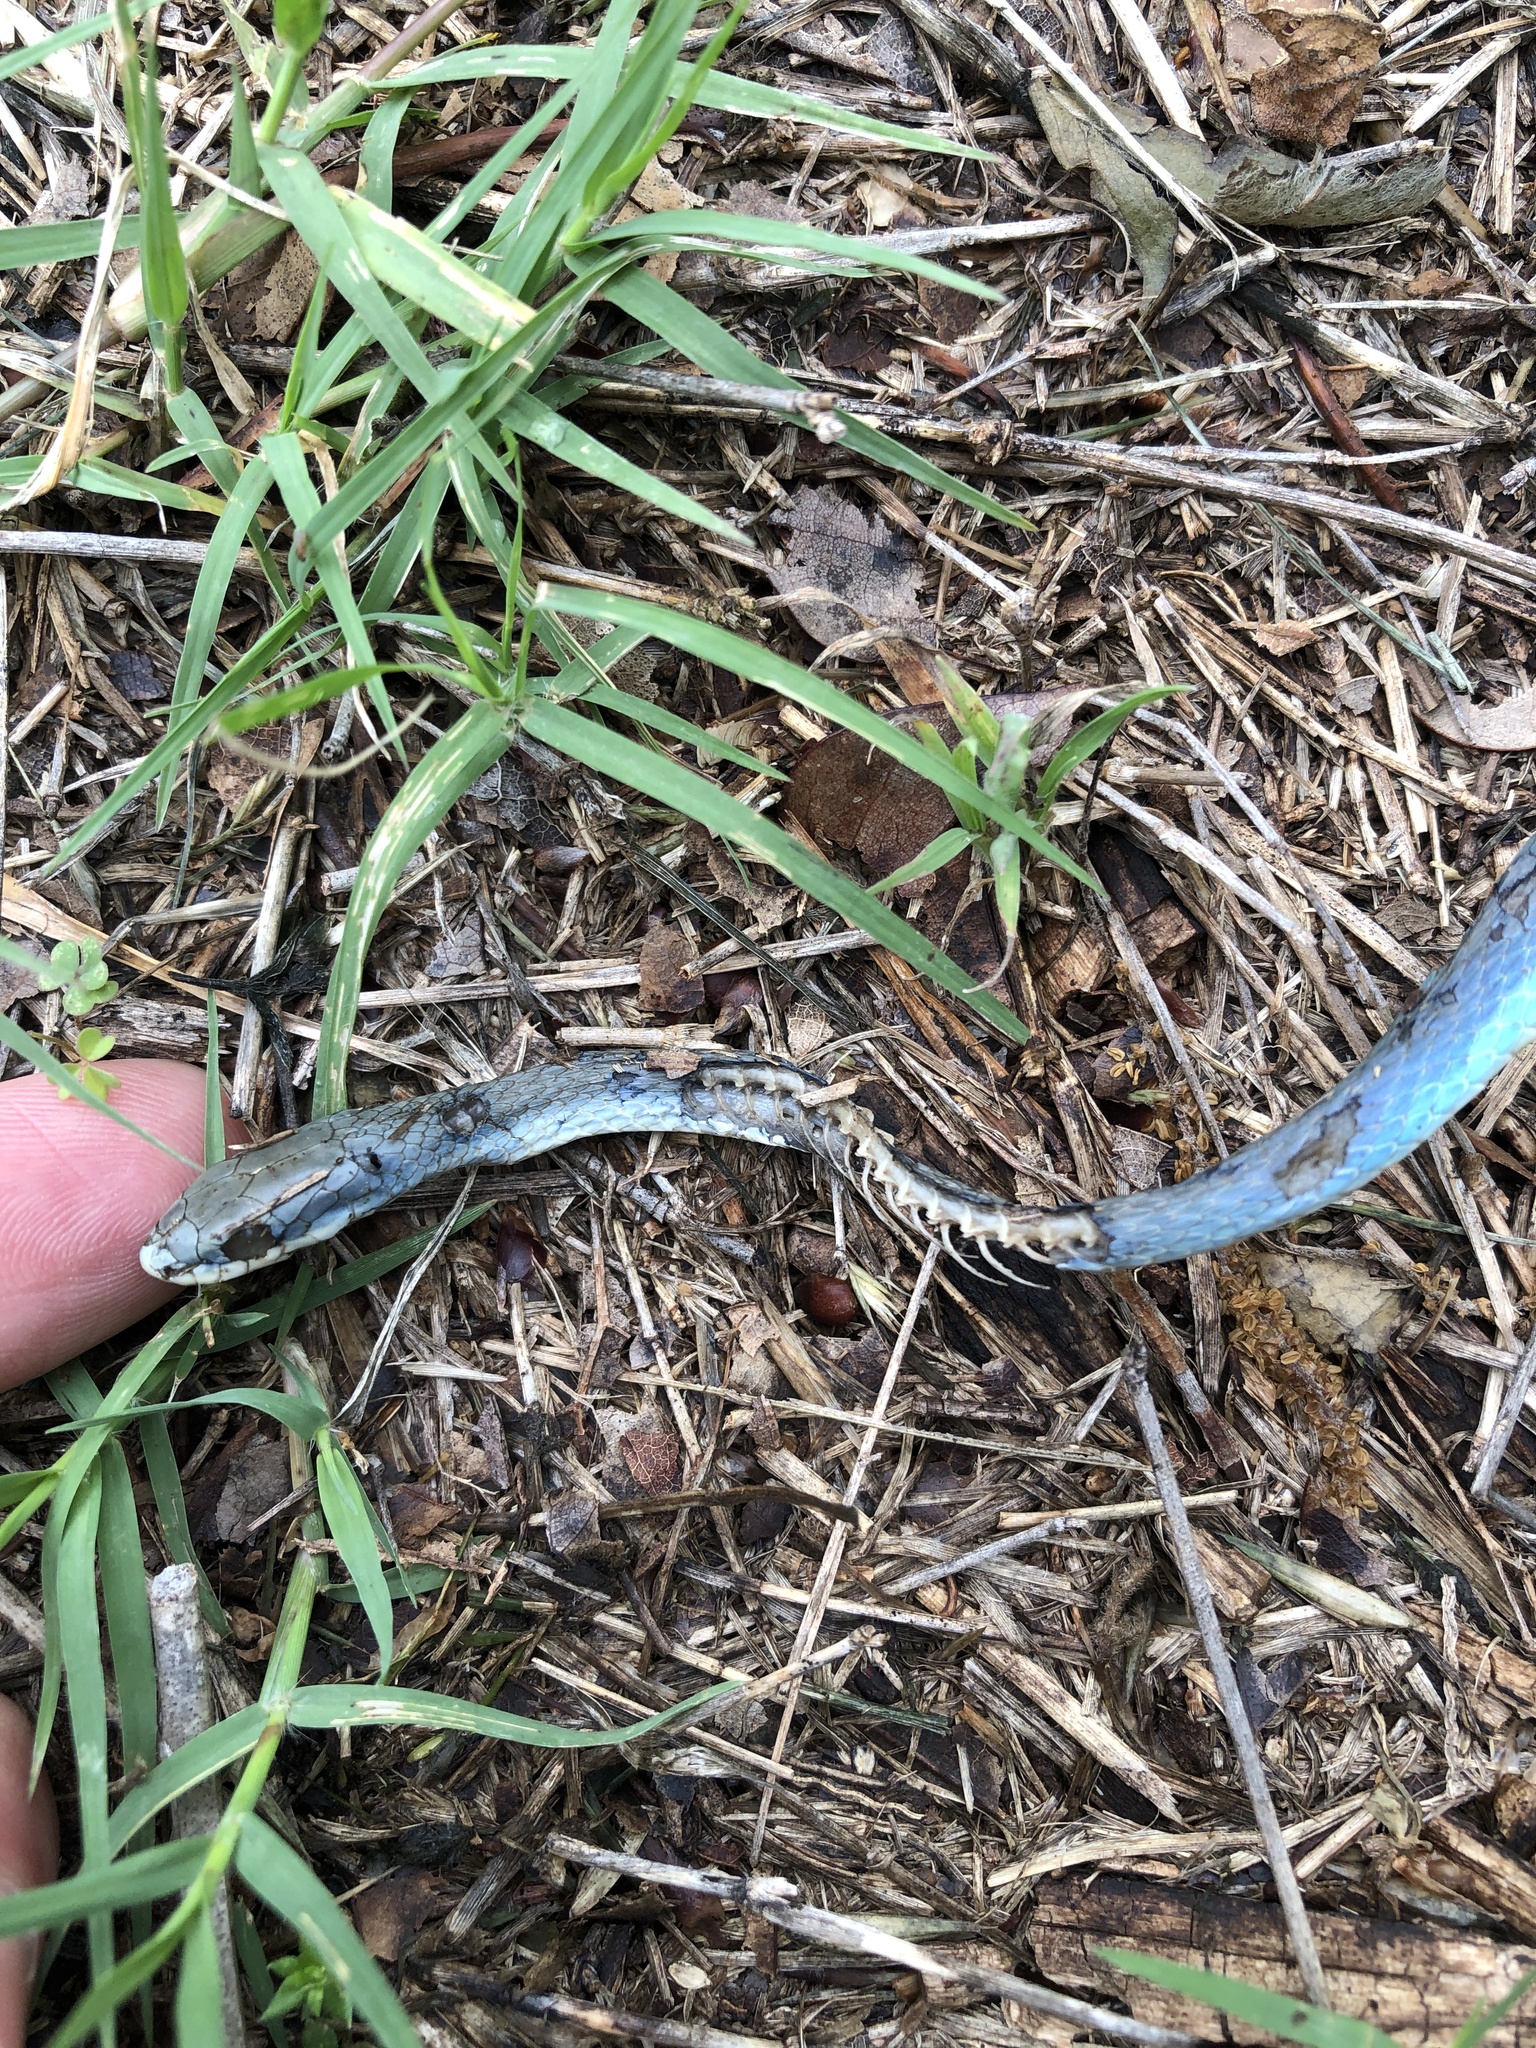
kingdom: Animalia
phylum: Chordata
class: Squamata
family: Colubridae
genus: Opheodrys
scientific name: Opheodrys aestivus
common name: Rough greensnake
